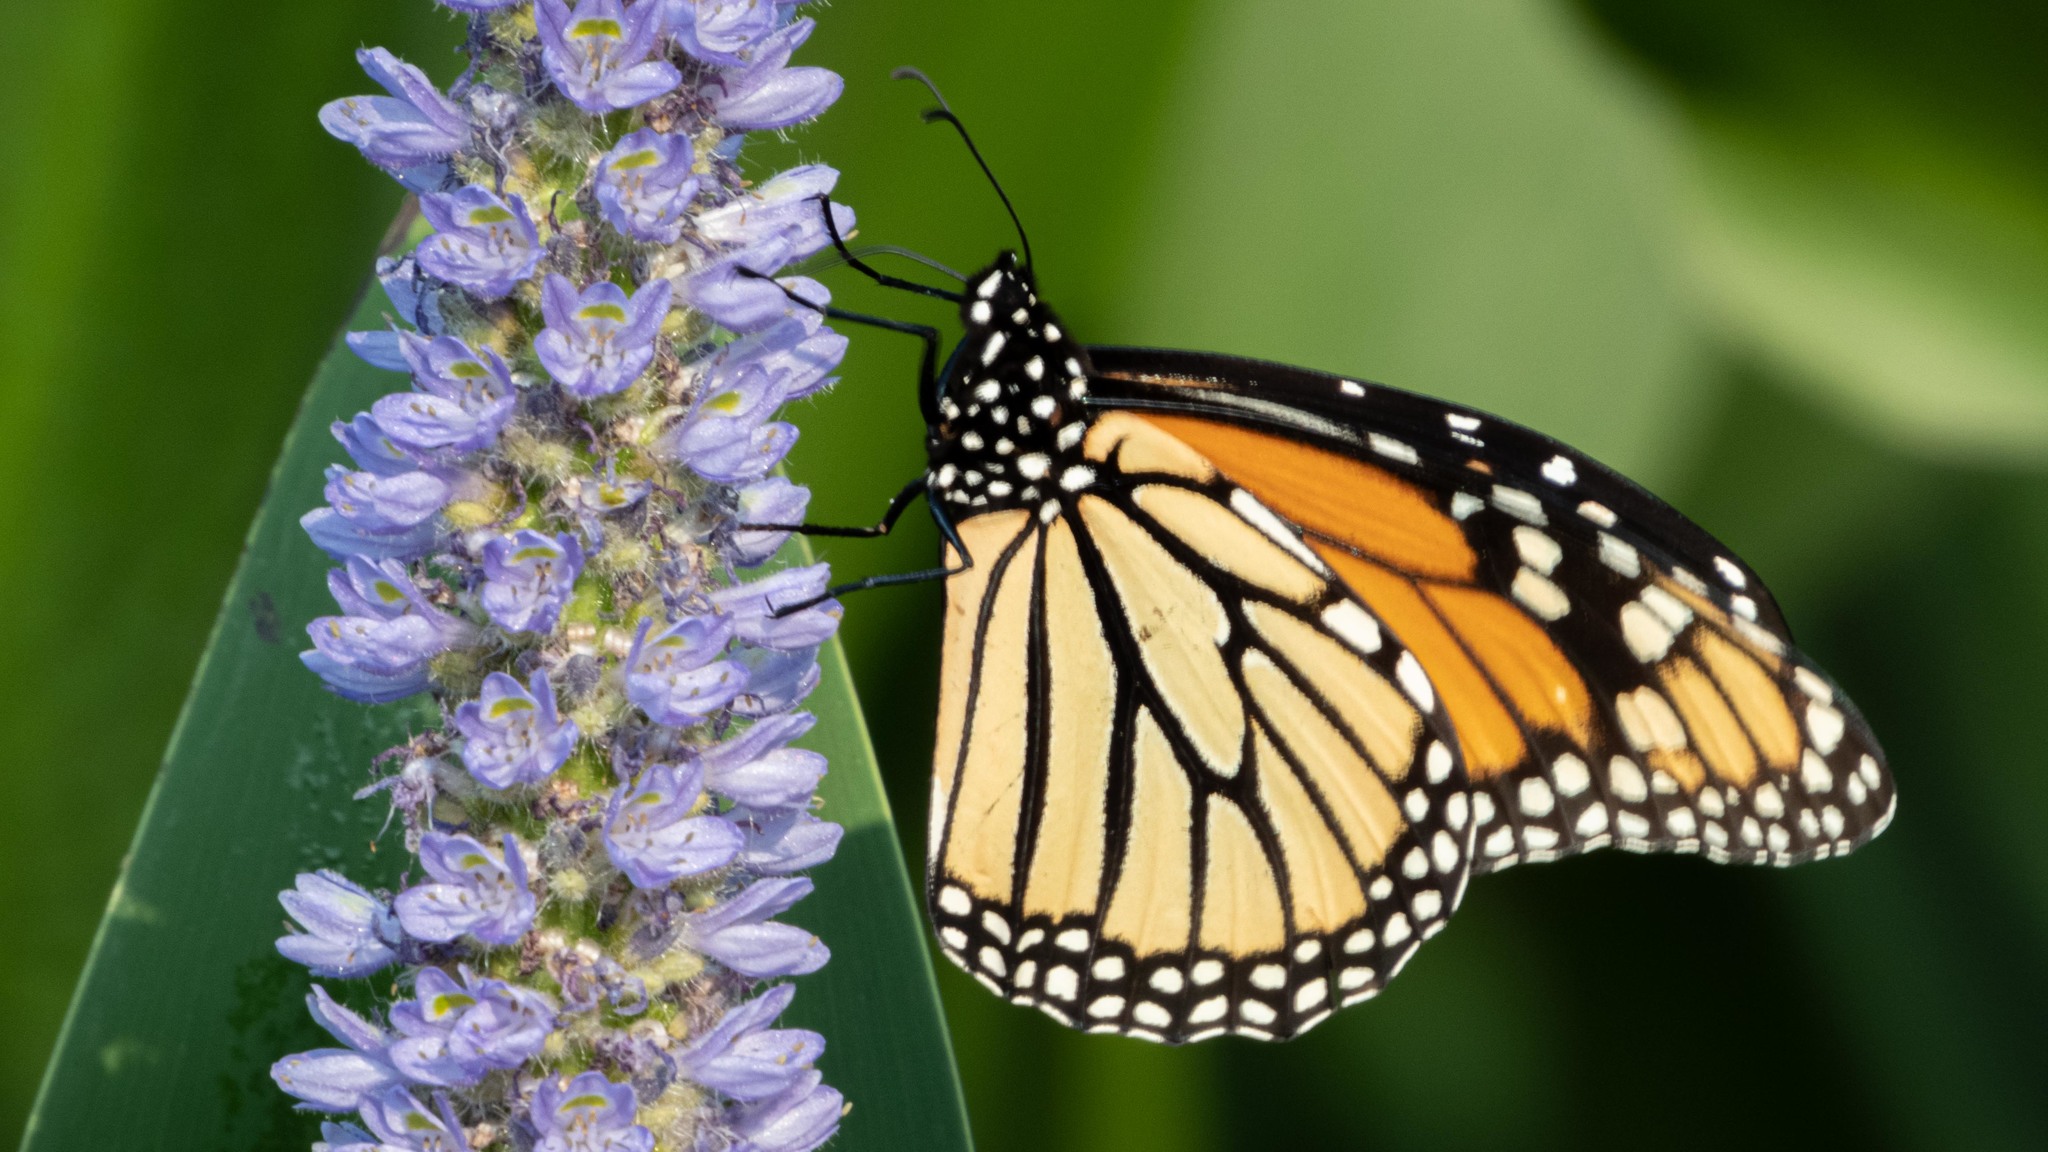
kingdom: Animalia
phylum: Arthropoda
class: Insecta
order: Lepidoptera
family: Nymphalidae
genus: Danaus
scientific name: Danaus plexippus
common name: Monarch
